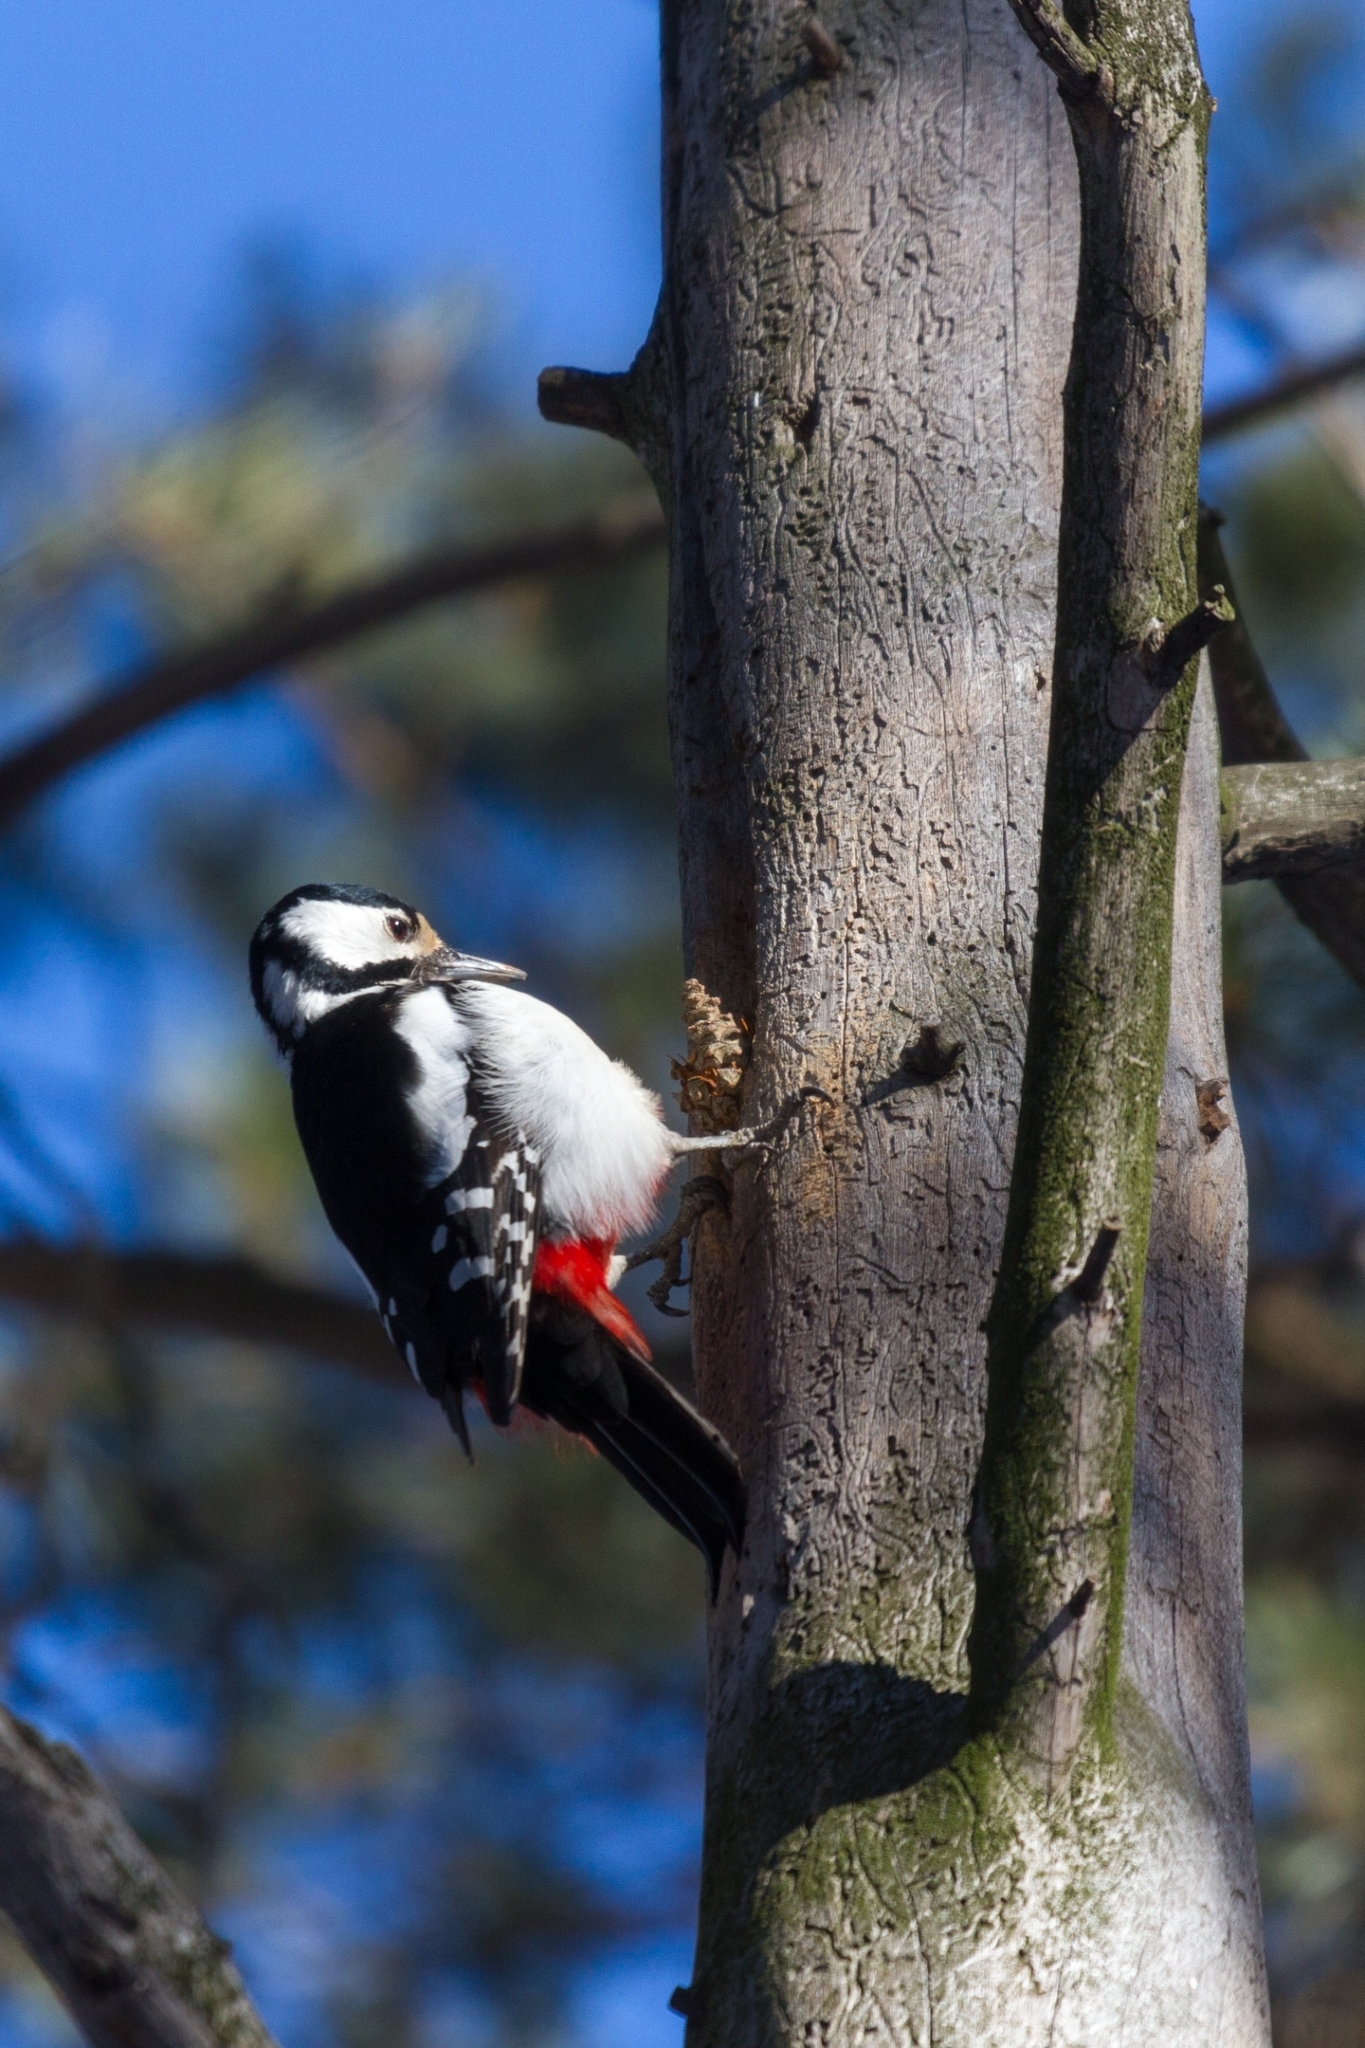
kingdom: Animalia
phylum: Chordata
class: Aves
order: Piciformes
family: Picidae
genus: Dendrocopos
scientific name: Dendrocopos major
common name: Great spotted woodpecker
